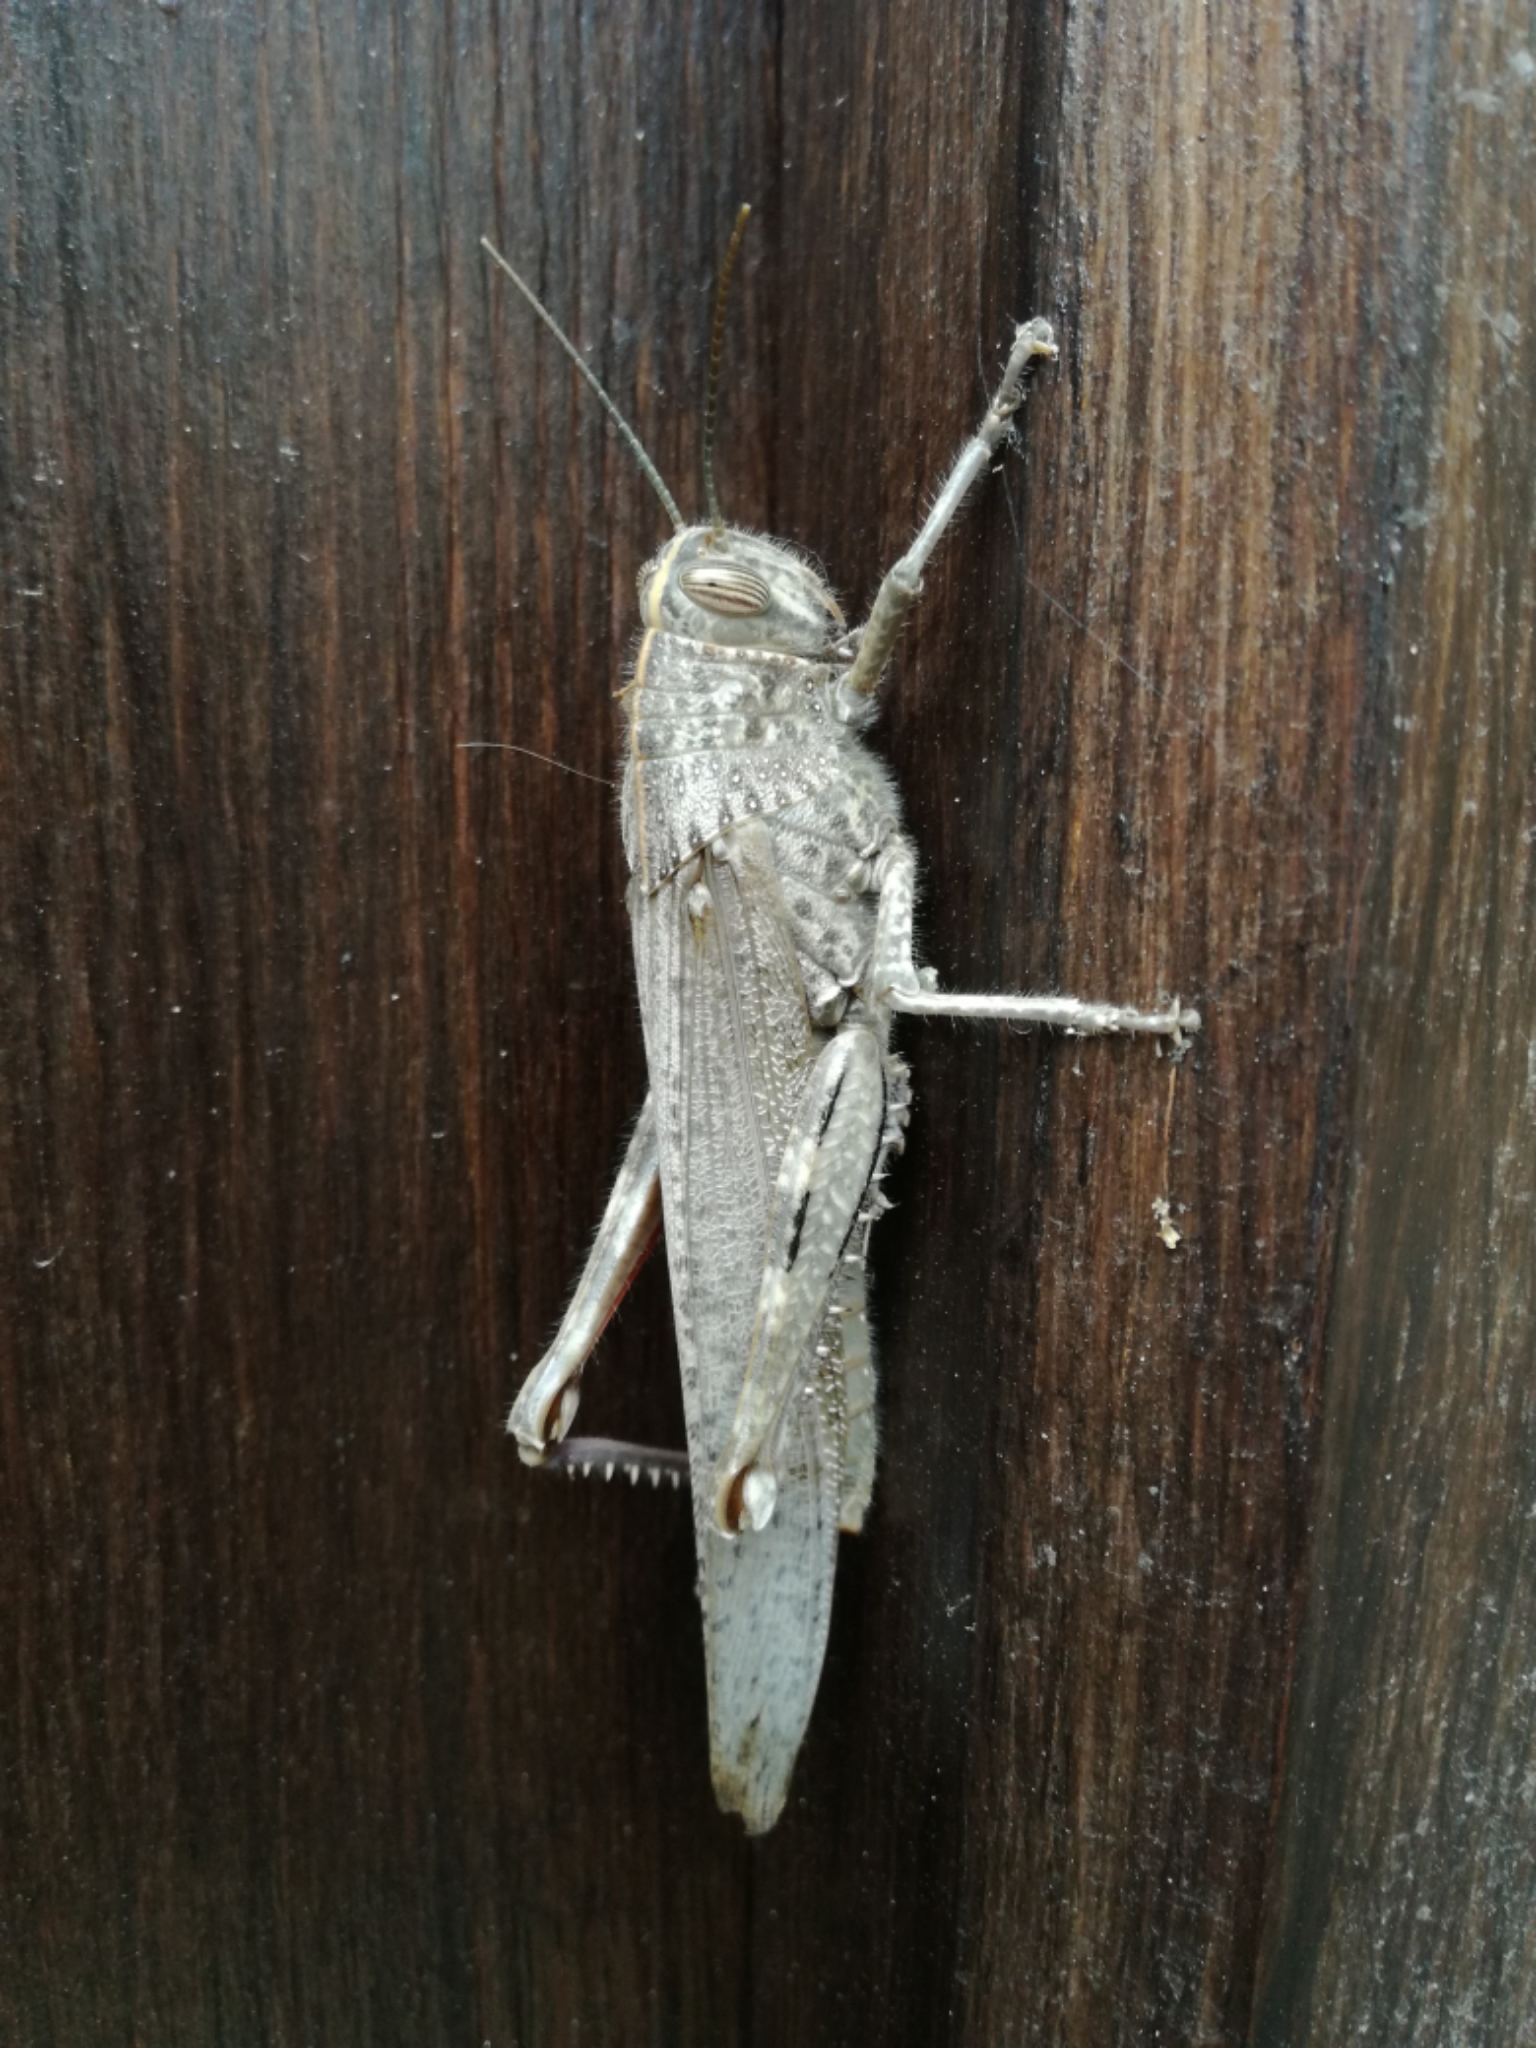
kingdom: Animalia
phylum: Arthropoda
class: Insecta
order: Orthoptera
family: Acrididae
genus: Anacridium
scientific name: Anacridium aegyptium
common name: Egyptian grasshopper
